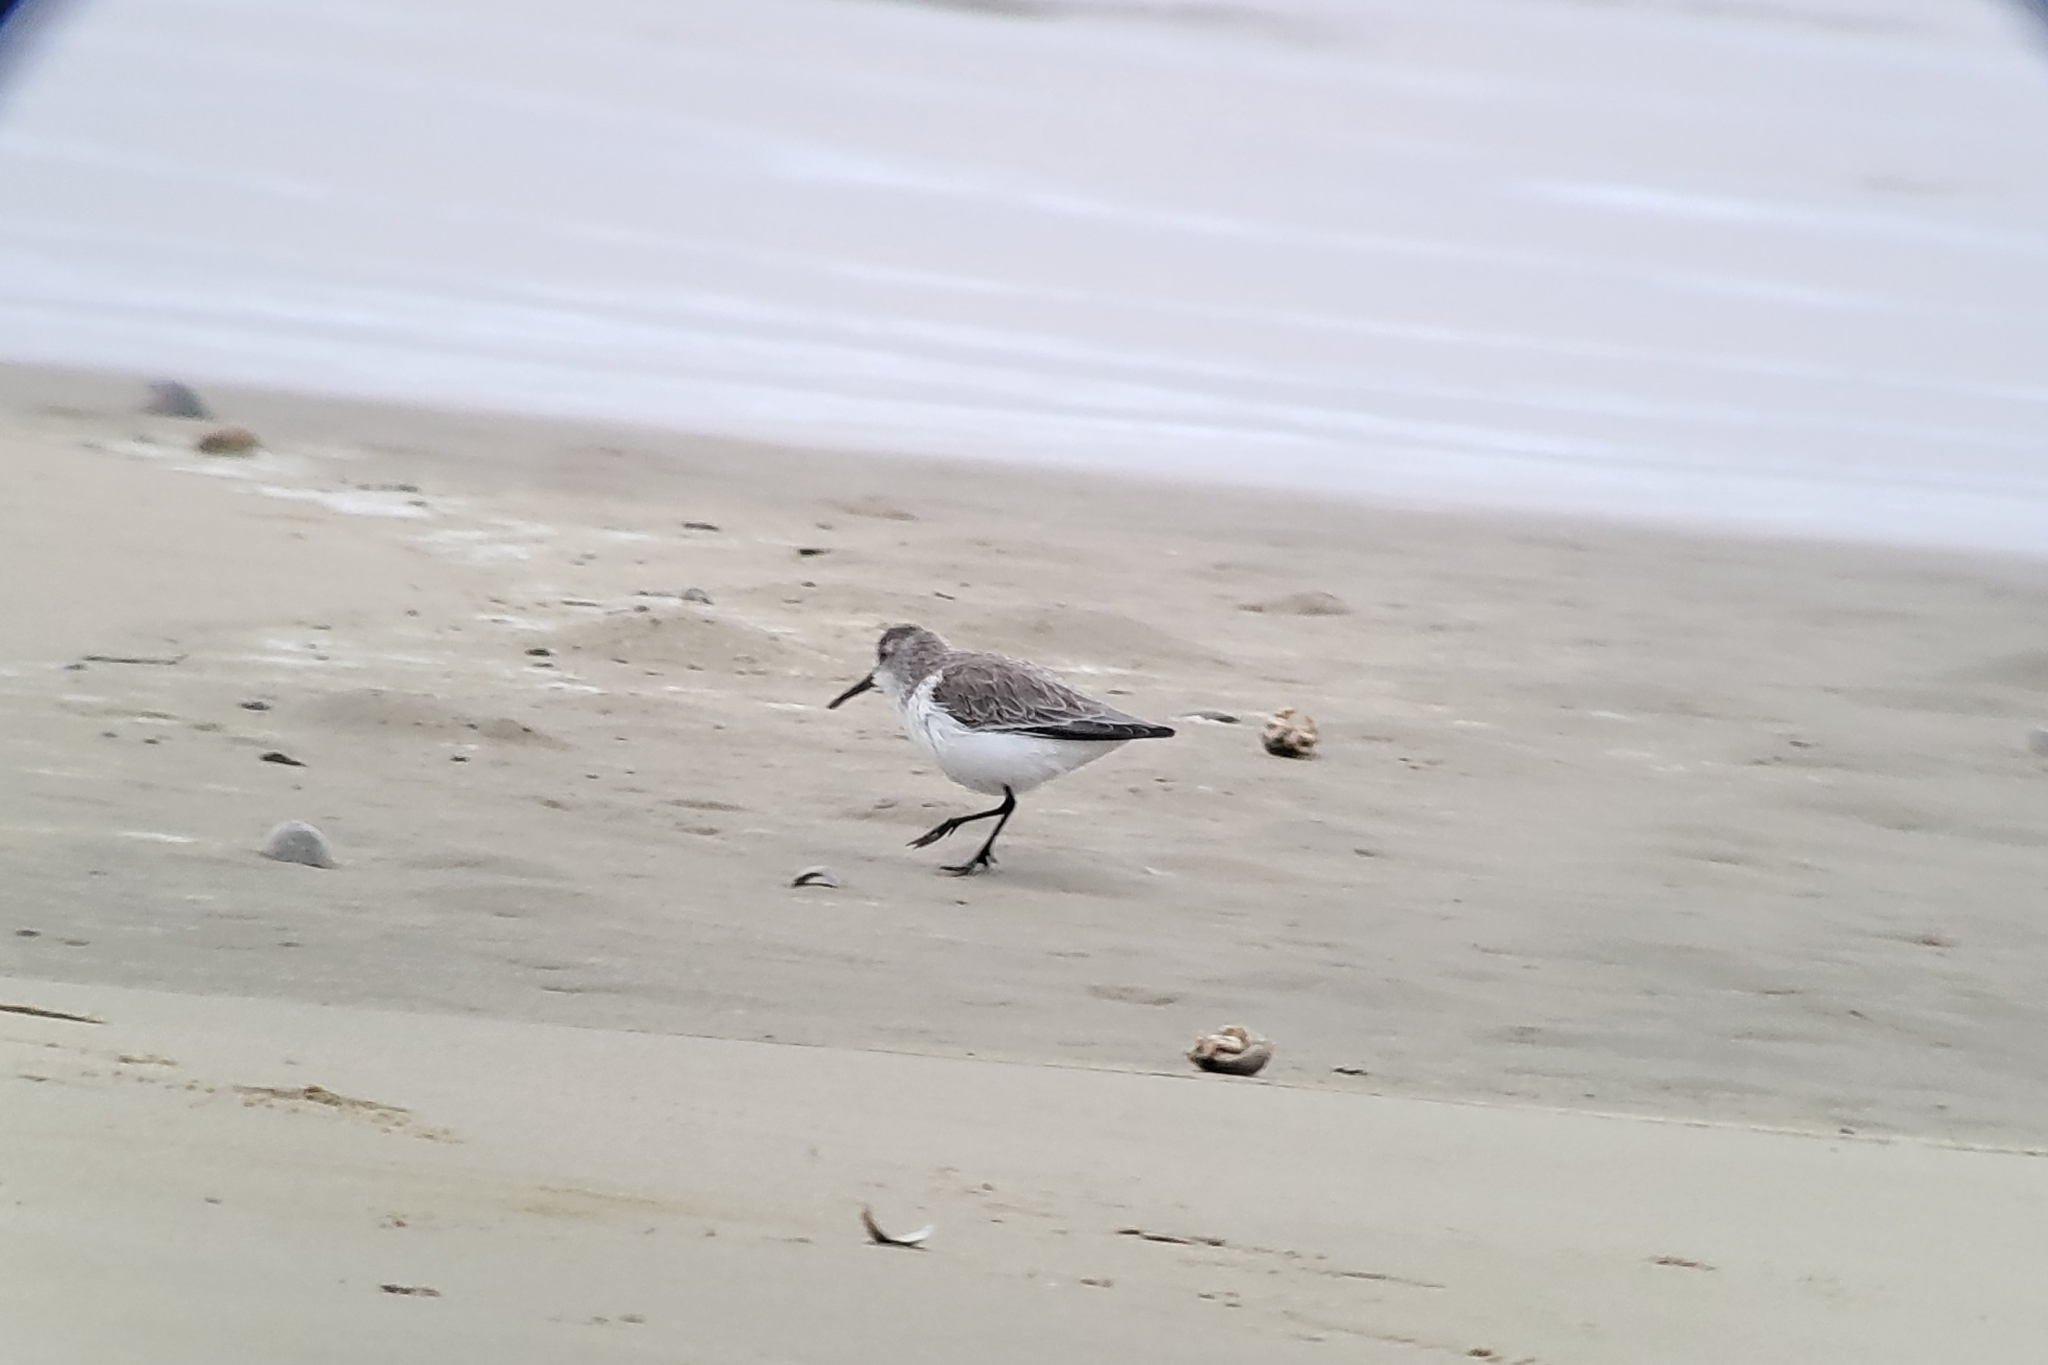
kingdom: Animalia
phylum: Chordata
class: Aves
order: Charadriiformes
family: Scolopacidae
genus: Calidris
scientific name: Calidris mauri
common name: Western sandpiper
